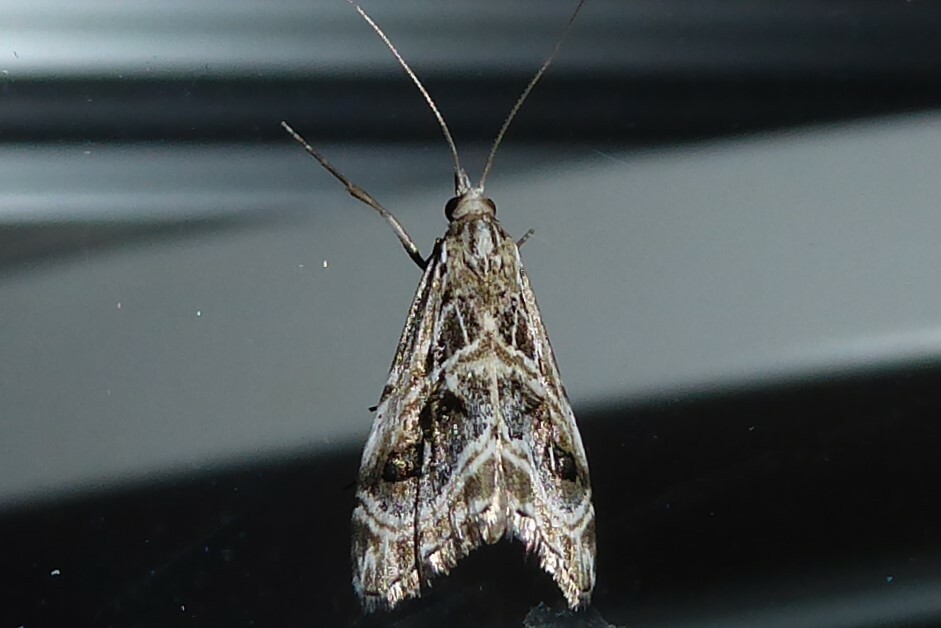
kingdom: Animalia
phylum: Arthropoda
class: Insecta
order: Lepidoptera
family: Crambidae
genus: Gadira
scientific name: Gadira acerella
